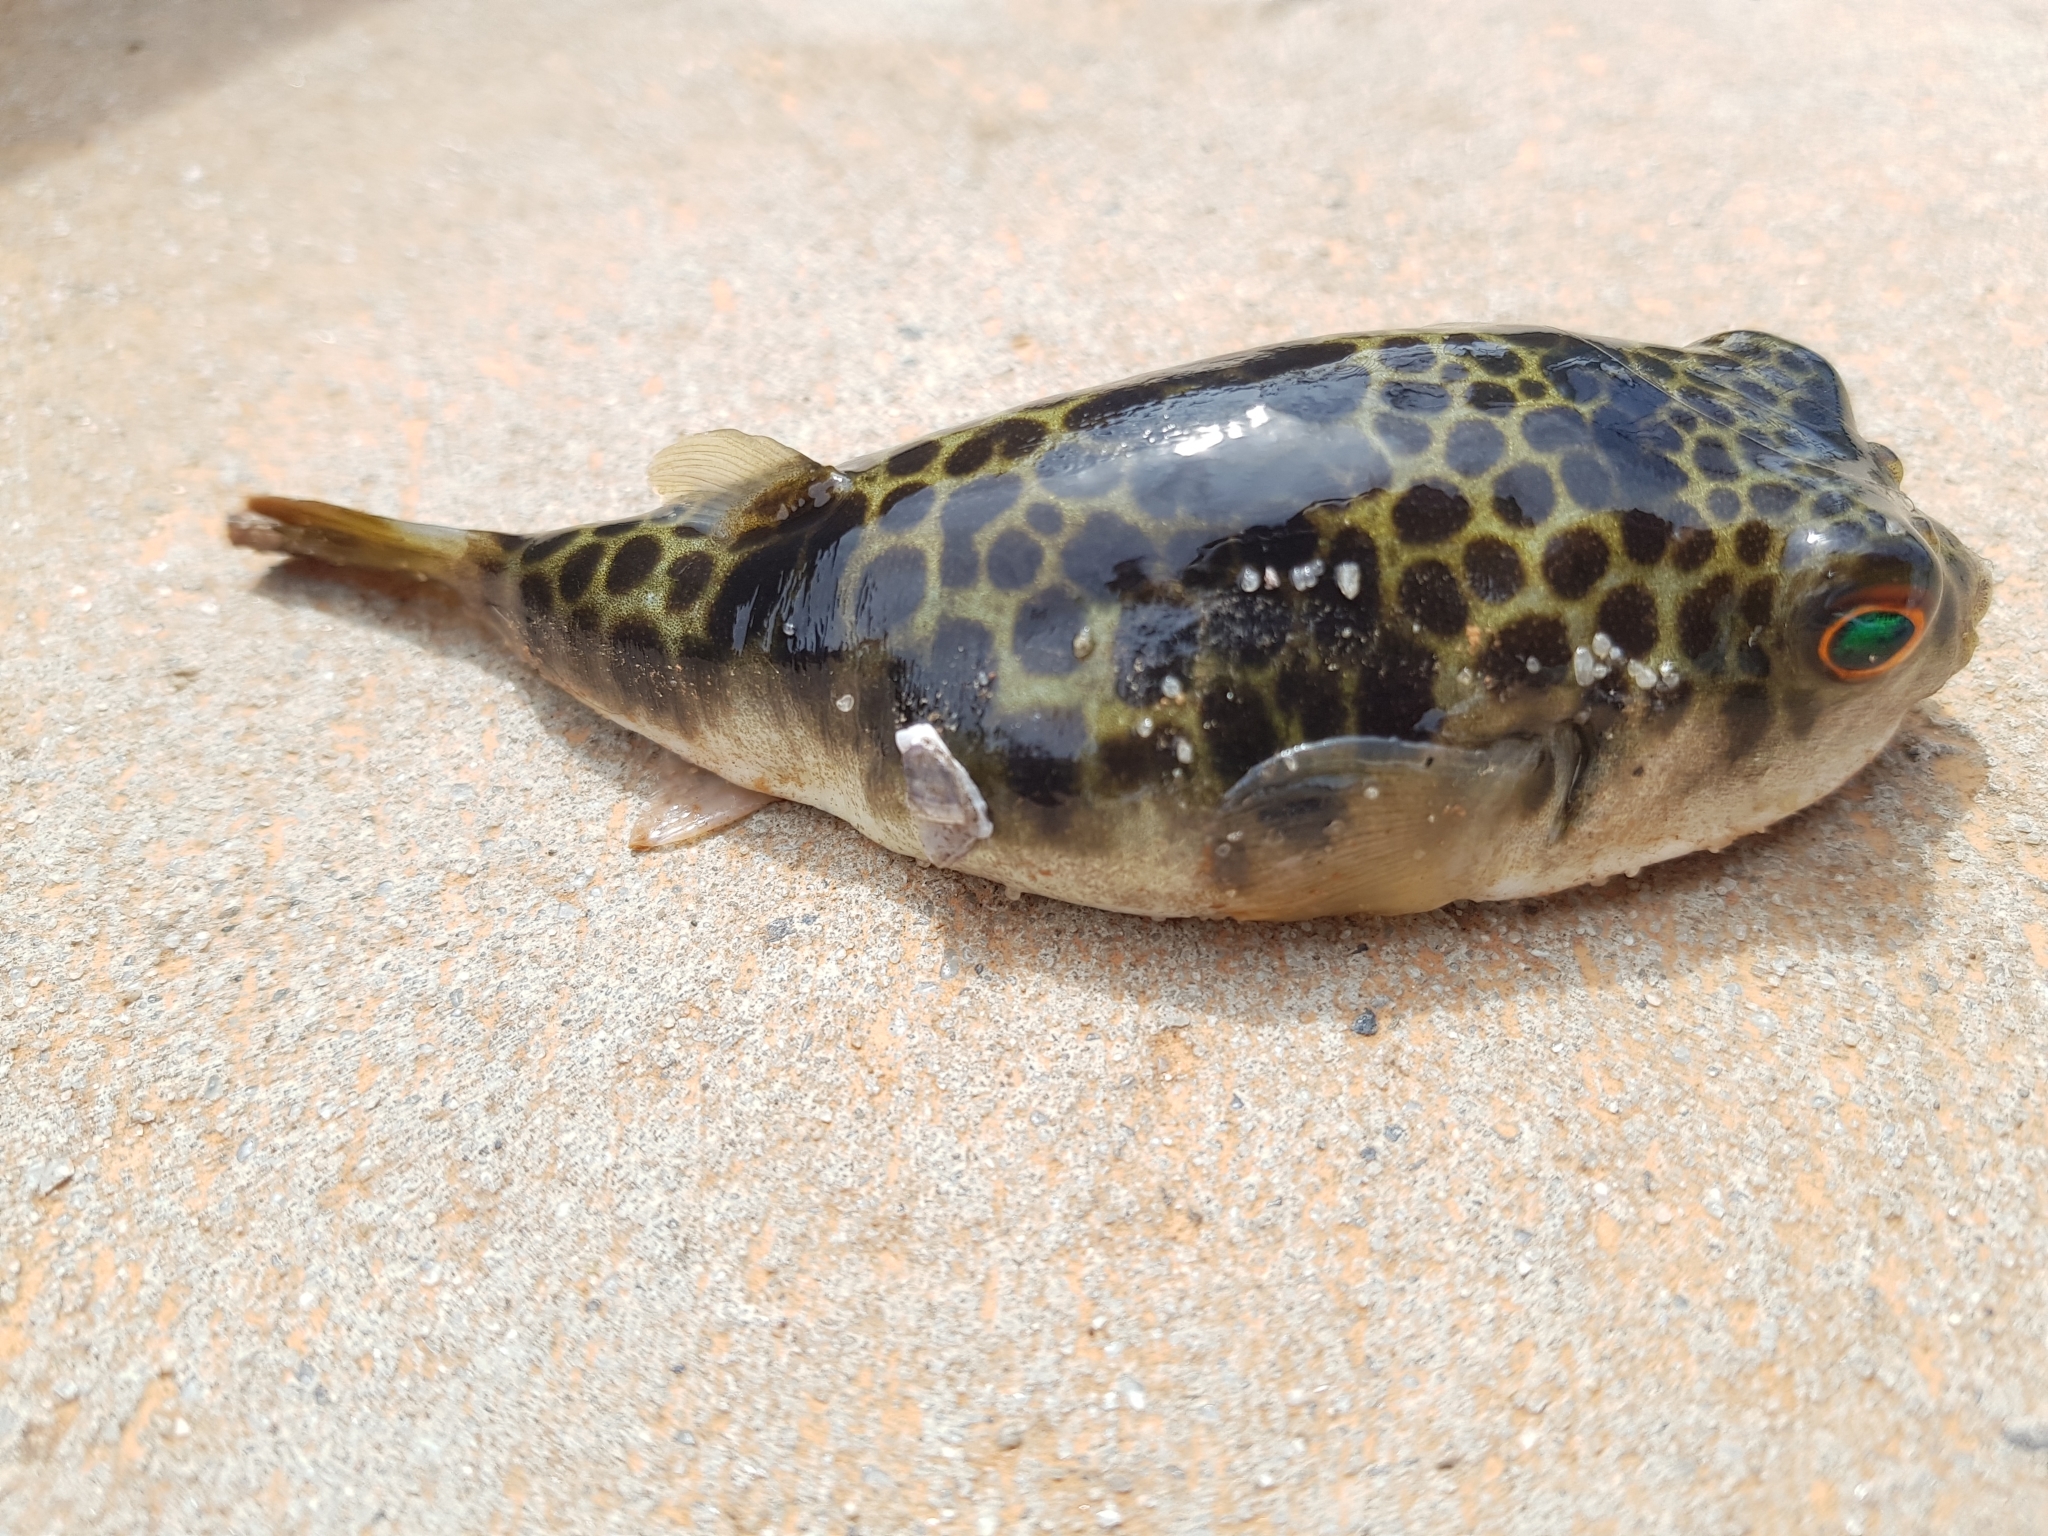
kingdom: Animalia
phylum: Chordata
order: Tetraodontiformes
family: Tetraodontidae
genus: Tetractenos
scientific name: Tetractenos glaber
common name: Smooth toadfish
